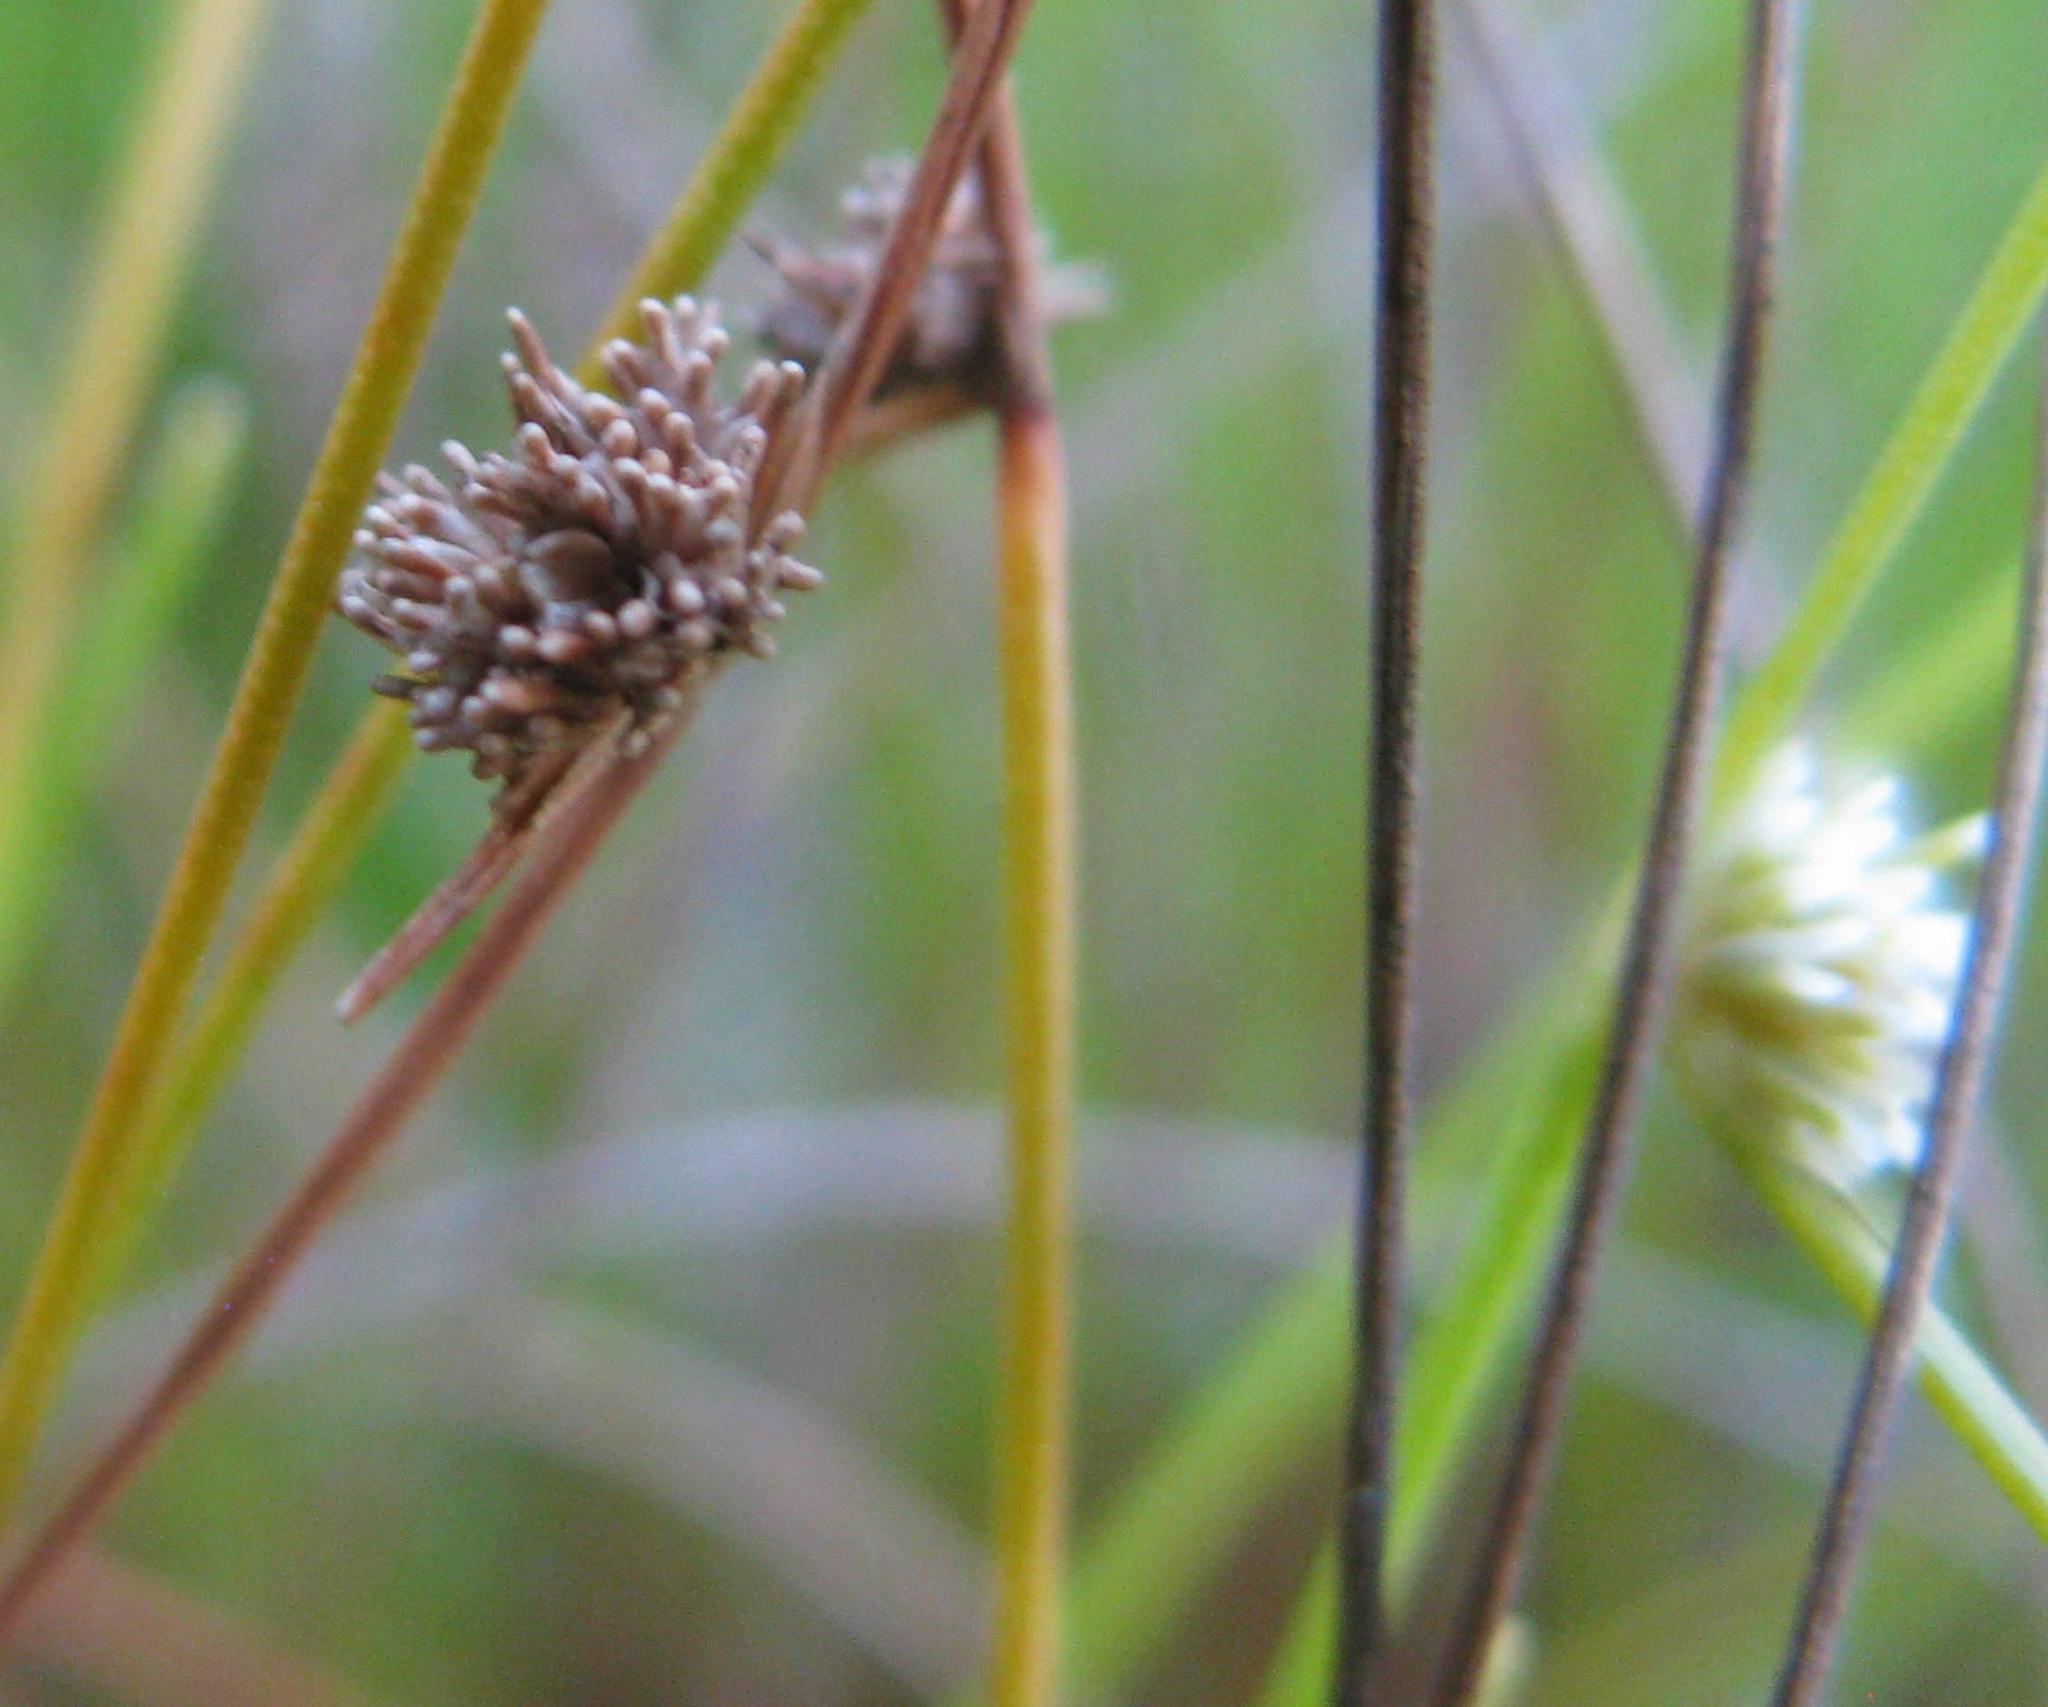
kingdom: Plantae
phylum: Tracheophyta
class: Liliopsida
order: Poales
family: Cyperaceae
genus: Ficinia
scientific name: Ficinia minutiflora
